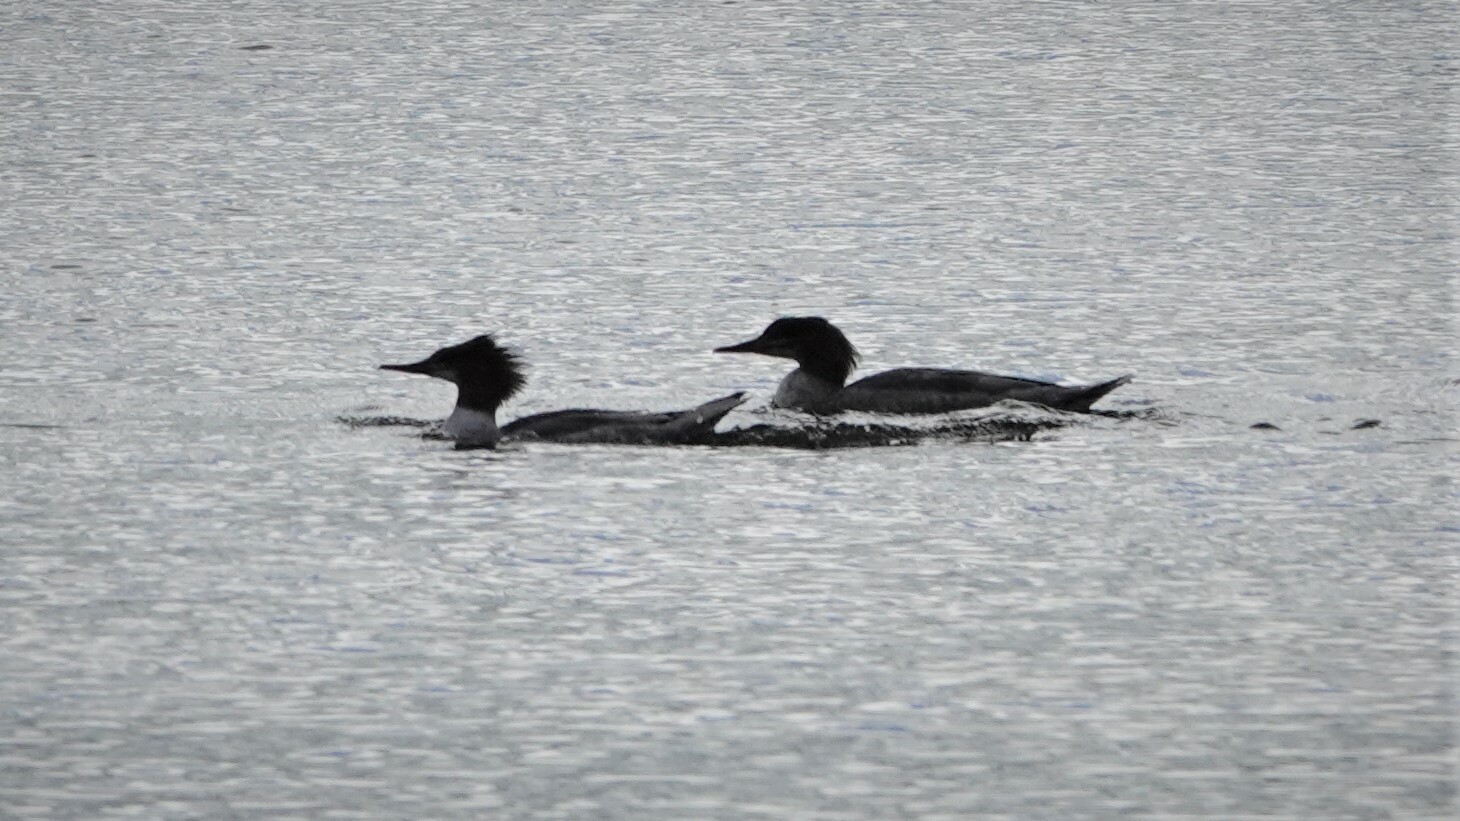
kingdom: Animalia
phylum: Chordata
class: Aves
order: Anseriformes
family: Anatidae
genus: Mergus
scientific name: Mergus merganser
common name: Common merganser
